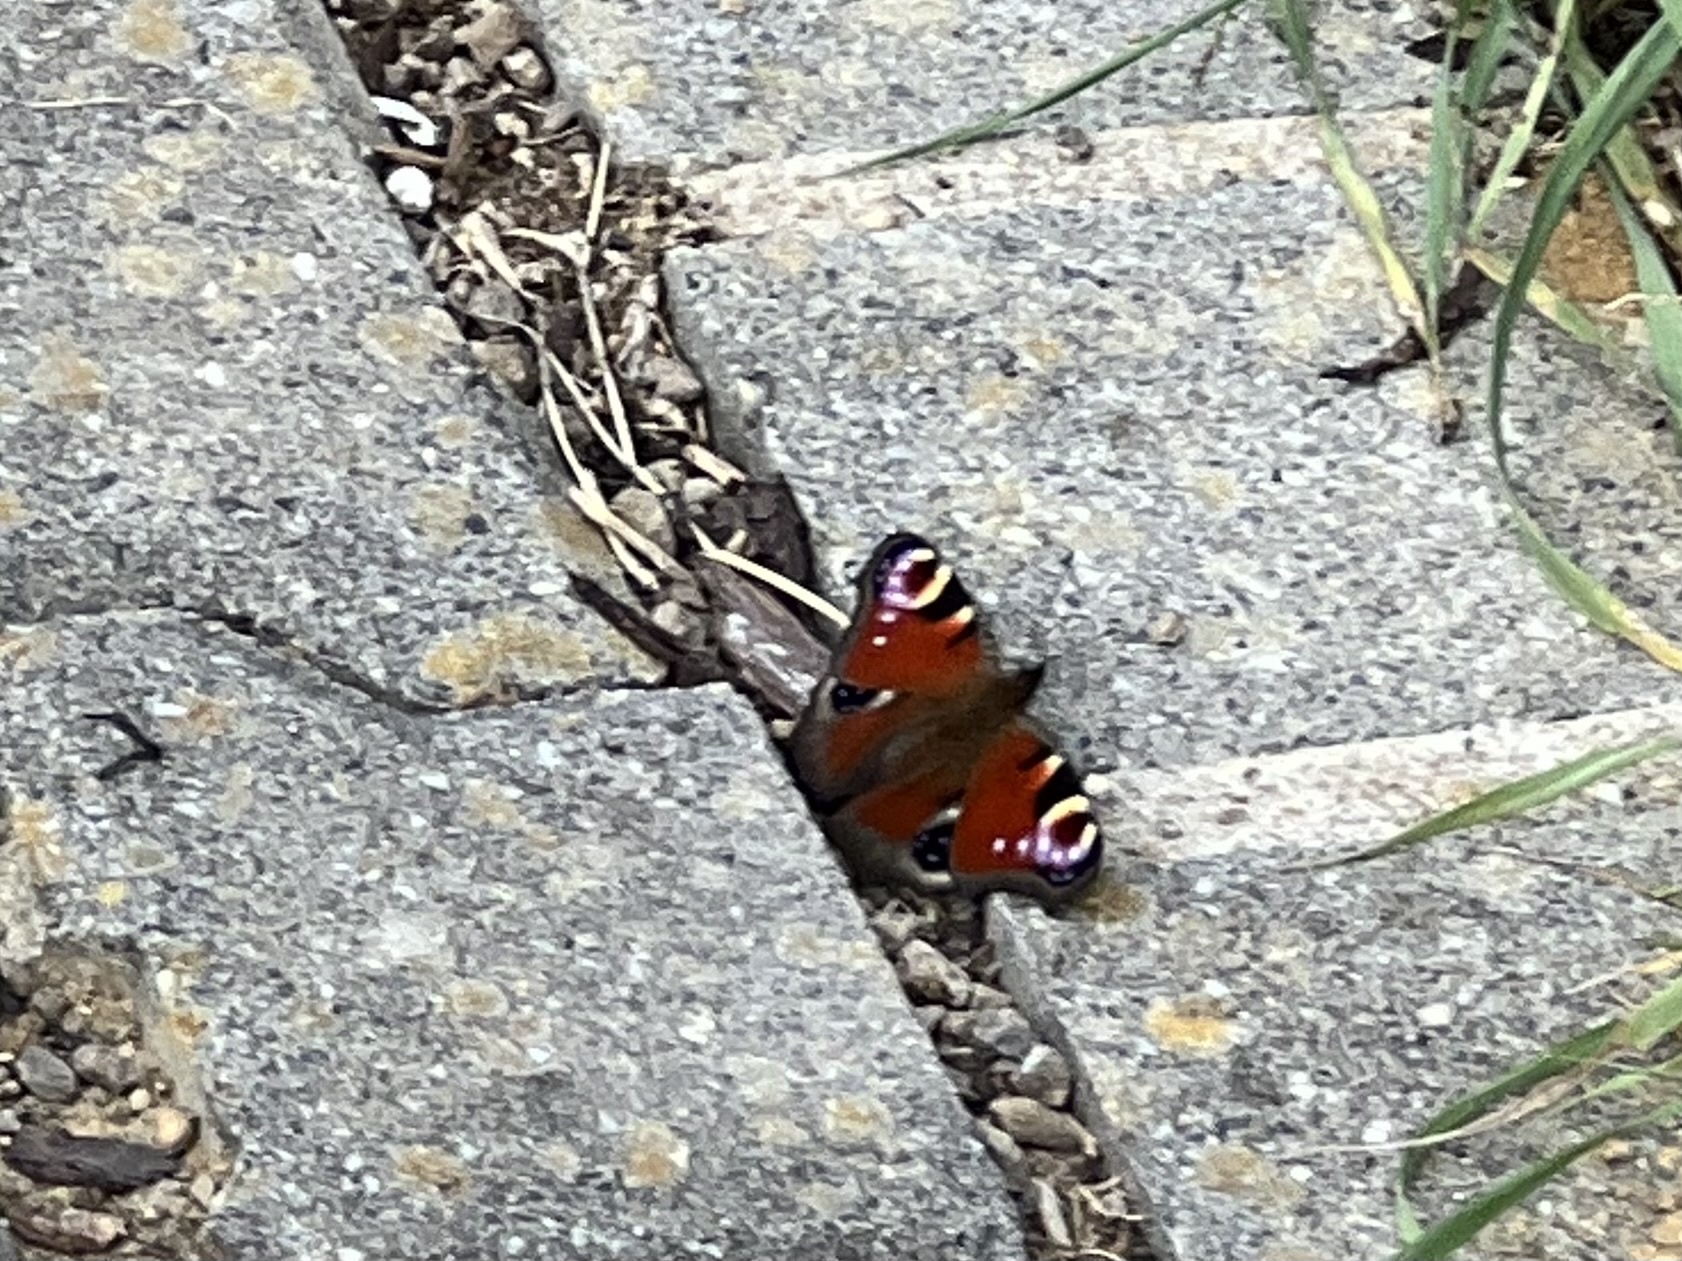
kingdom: Animalia
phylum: Arthropoda
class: Insecta
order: Lepidoptera
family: Nymphalidae
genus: Aglais
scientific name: Aglais io
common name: Peacock
